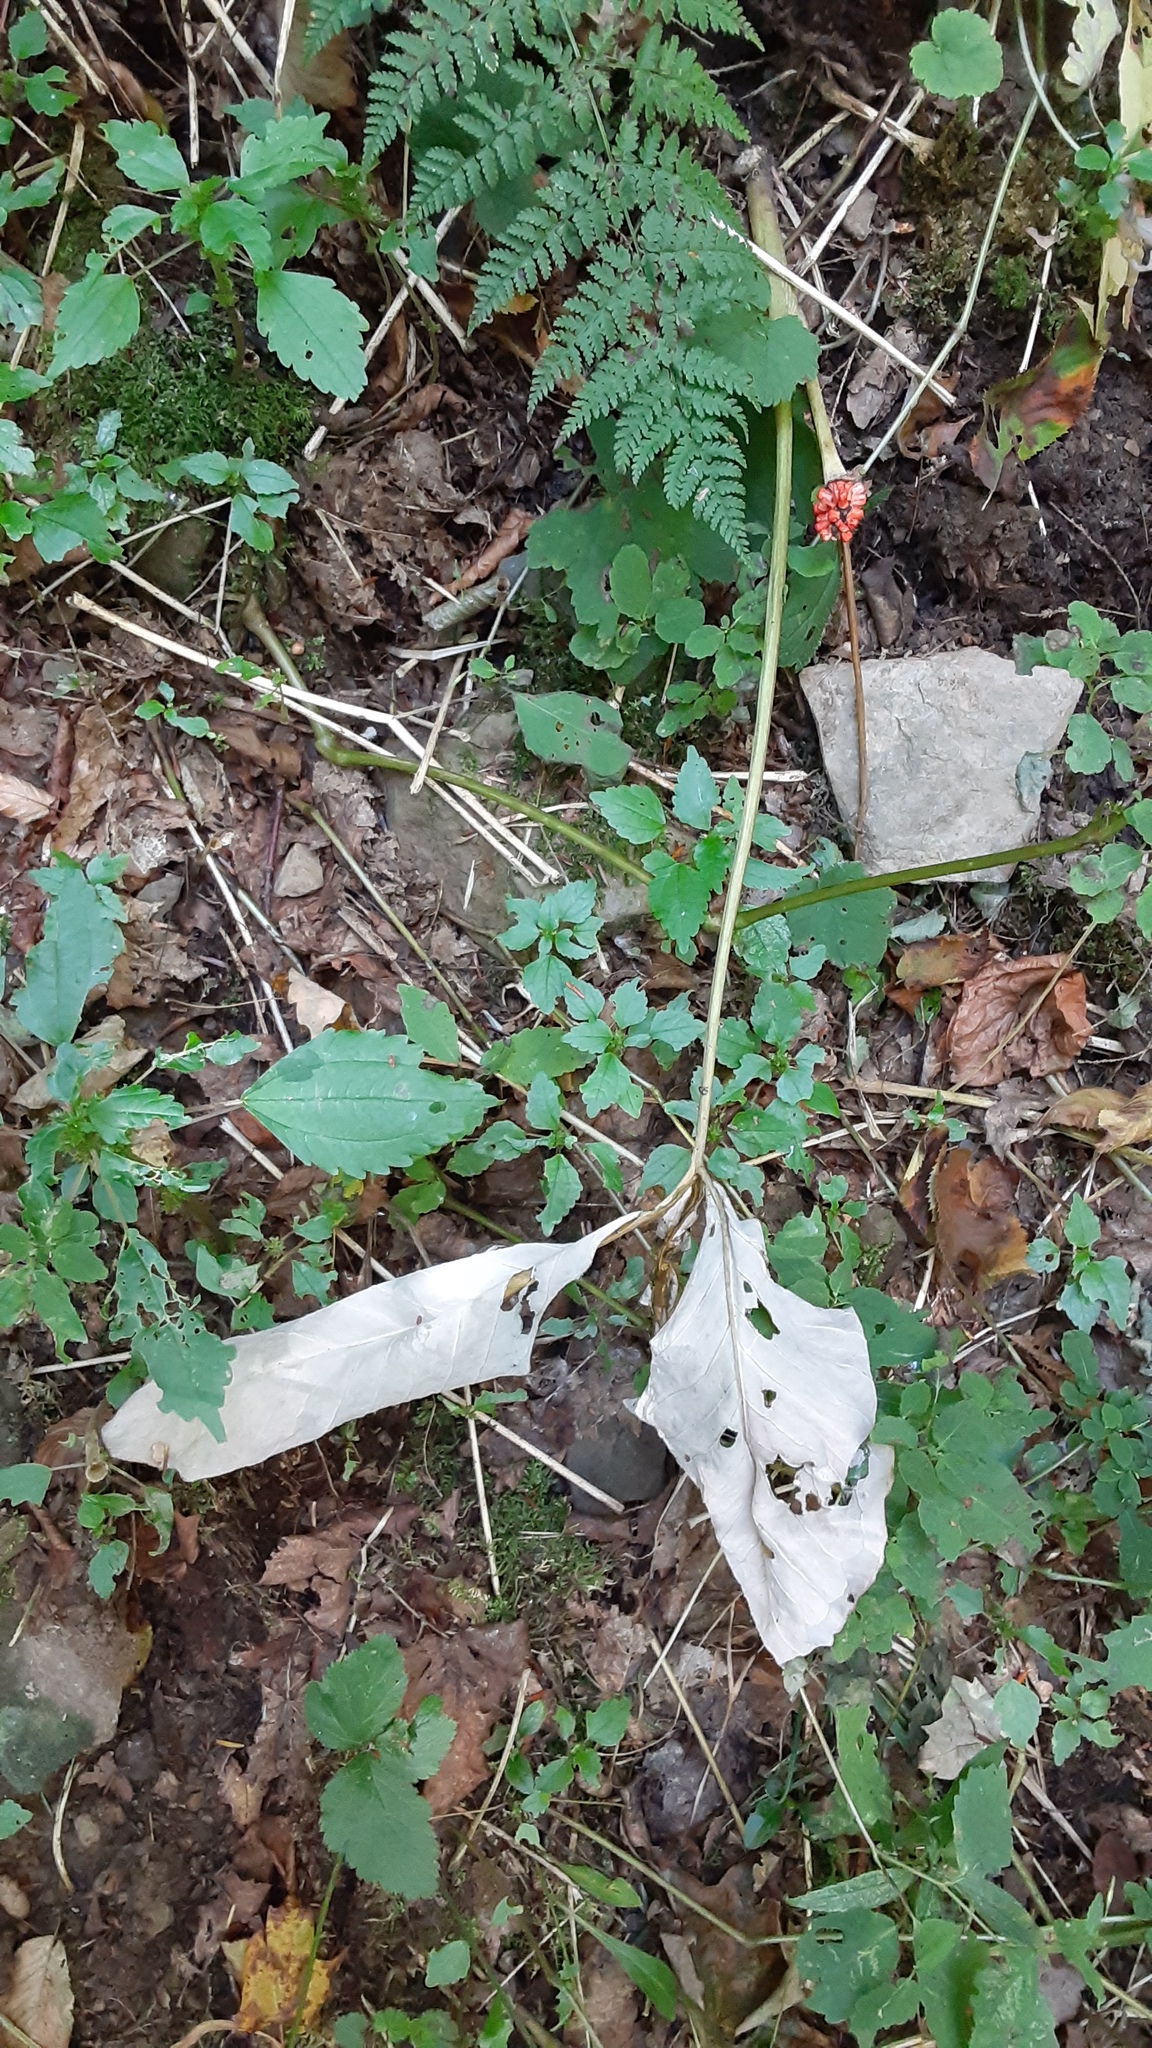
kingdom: Plantae
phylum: Tracheophyta
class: Liliopsida
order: Alismatales
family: Araceae
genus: Arisaema
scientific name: Arisaema triphyllum
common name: Jack-in-the-pulpit
